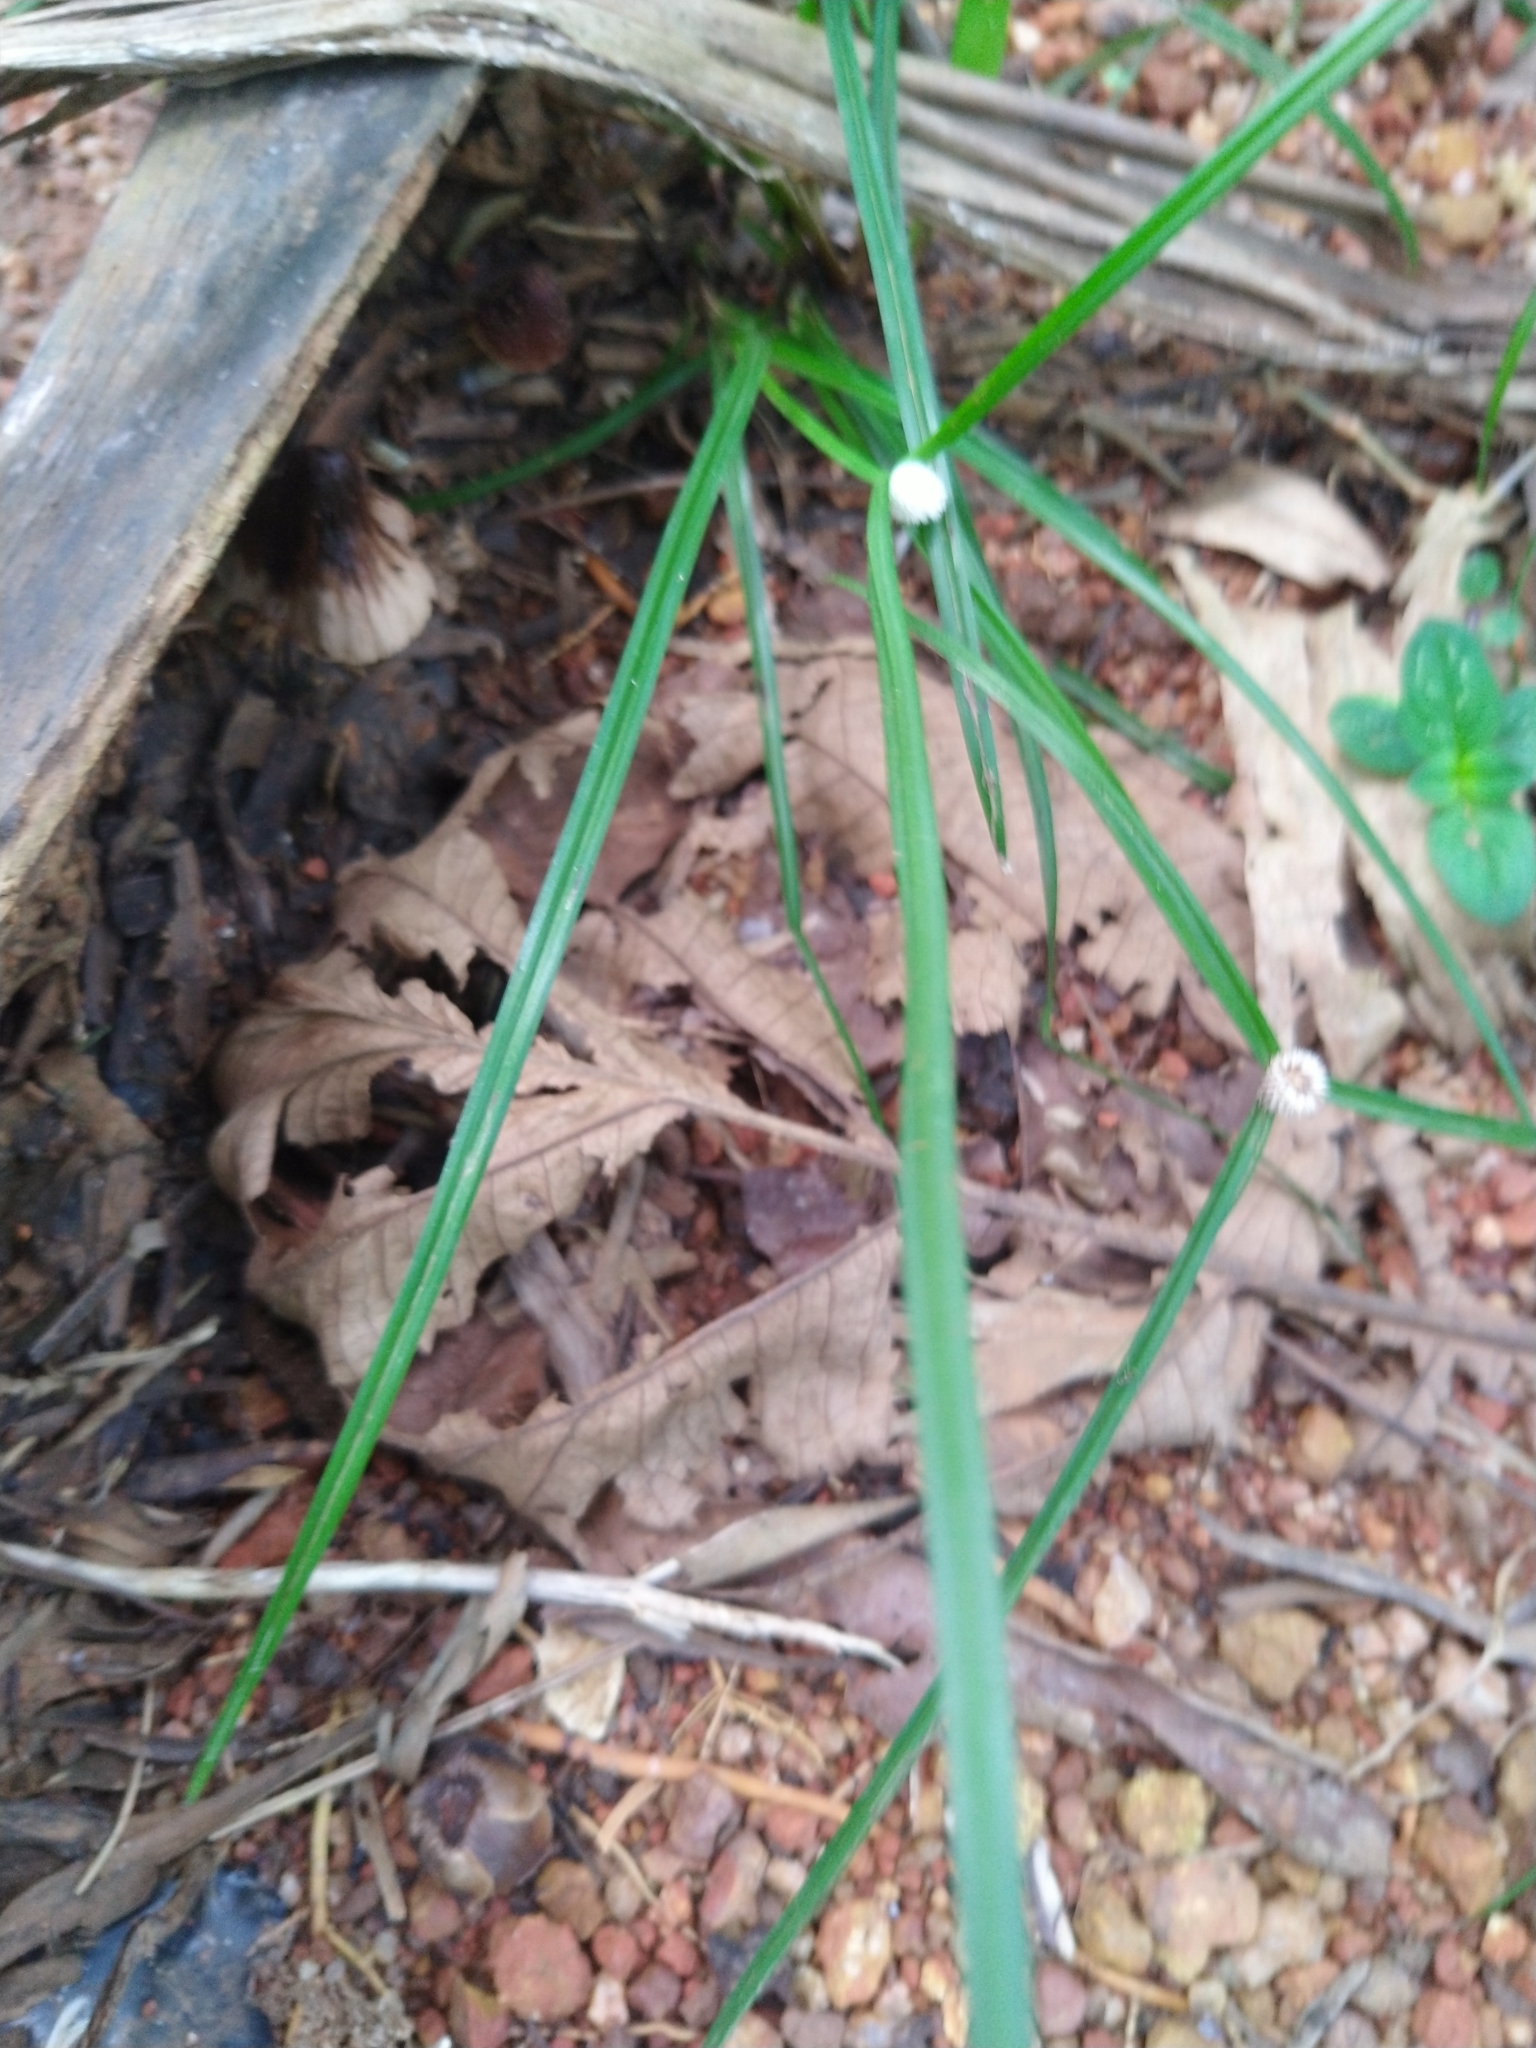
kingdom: Plantae
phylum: Tracheophyta
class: Liliopsida
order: Poales
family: Cyperaceae
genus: Cyperus
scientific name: Cyperus mindorensis
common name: Flatsedge
